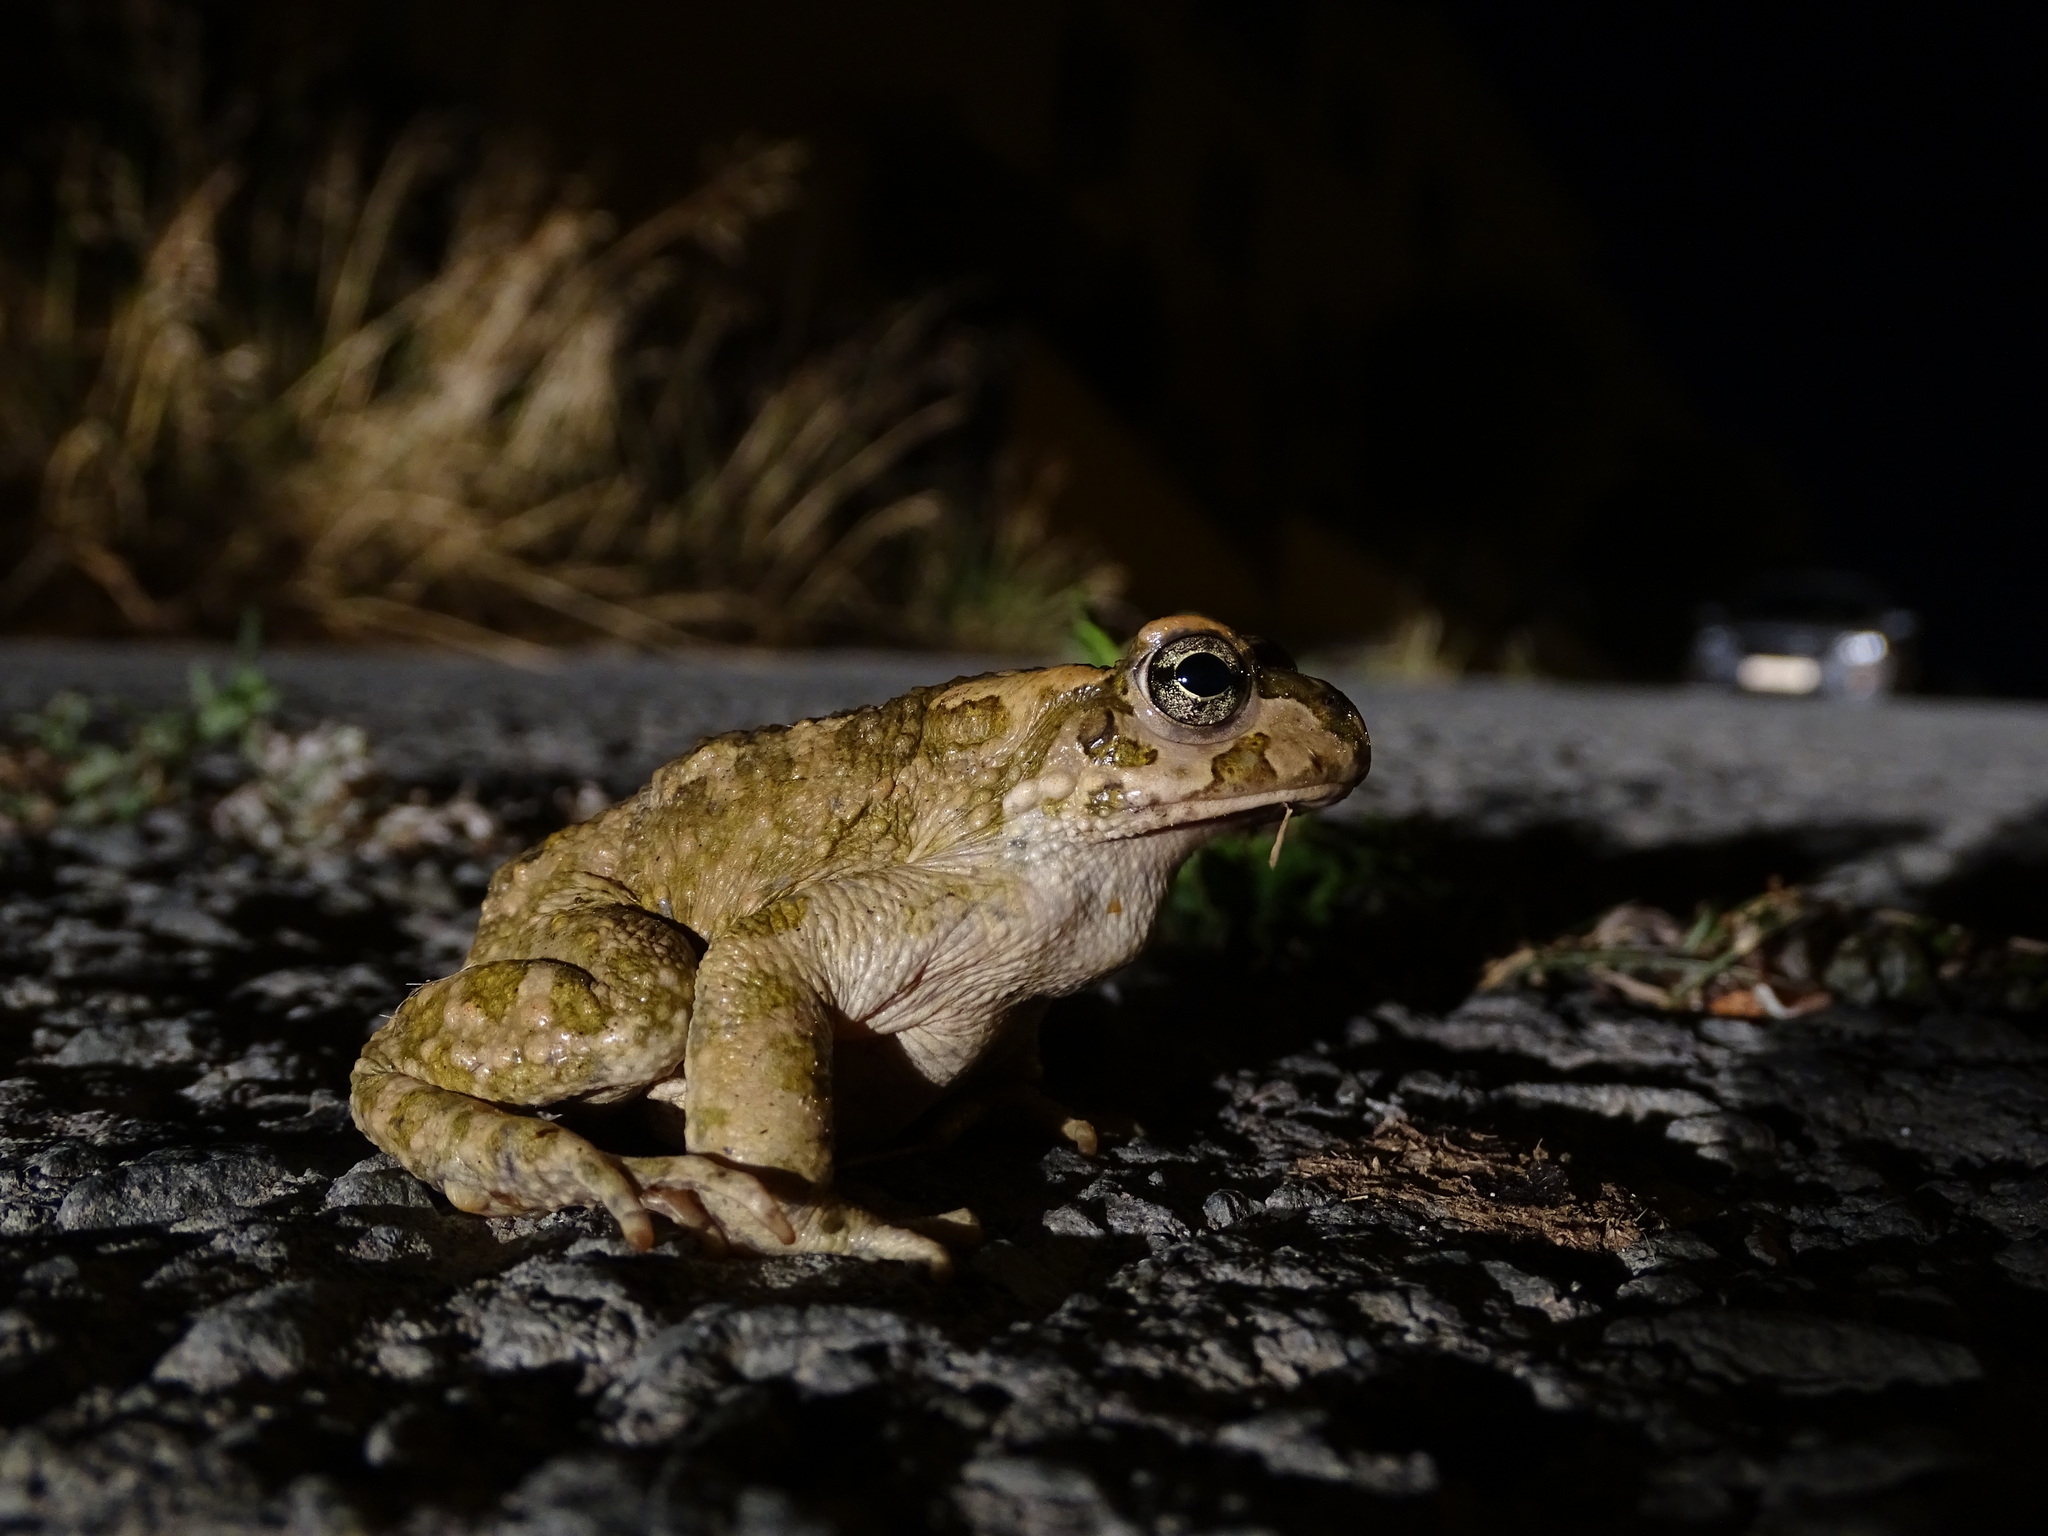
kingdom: Animalia
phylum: Chordata
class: Amphibia
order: Anura
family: Bufonidae
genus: Bufotes
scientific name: Bufotes cypriensis
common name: Cyprus green toad
